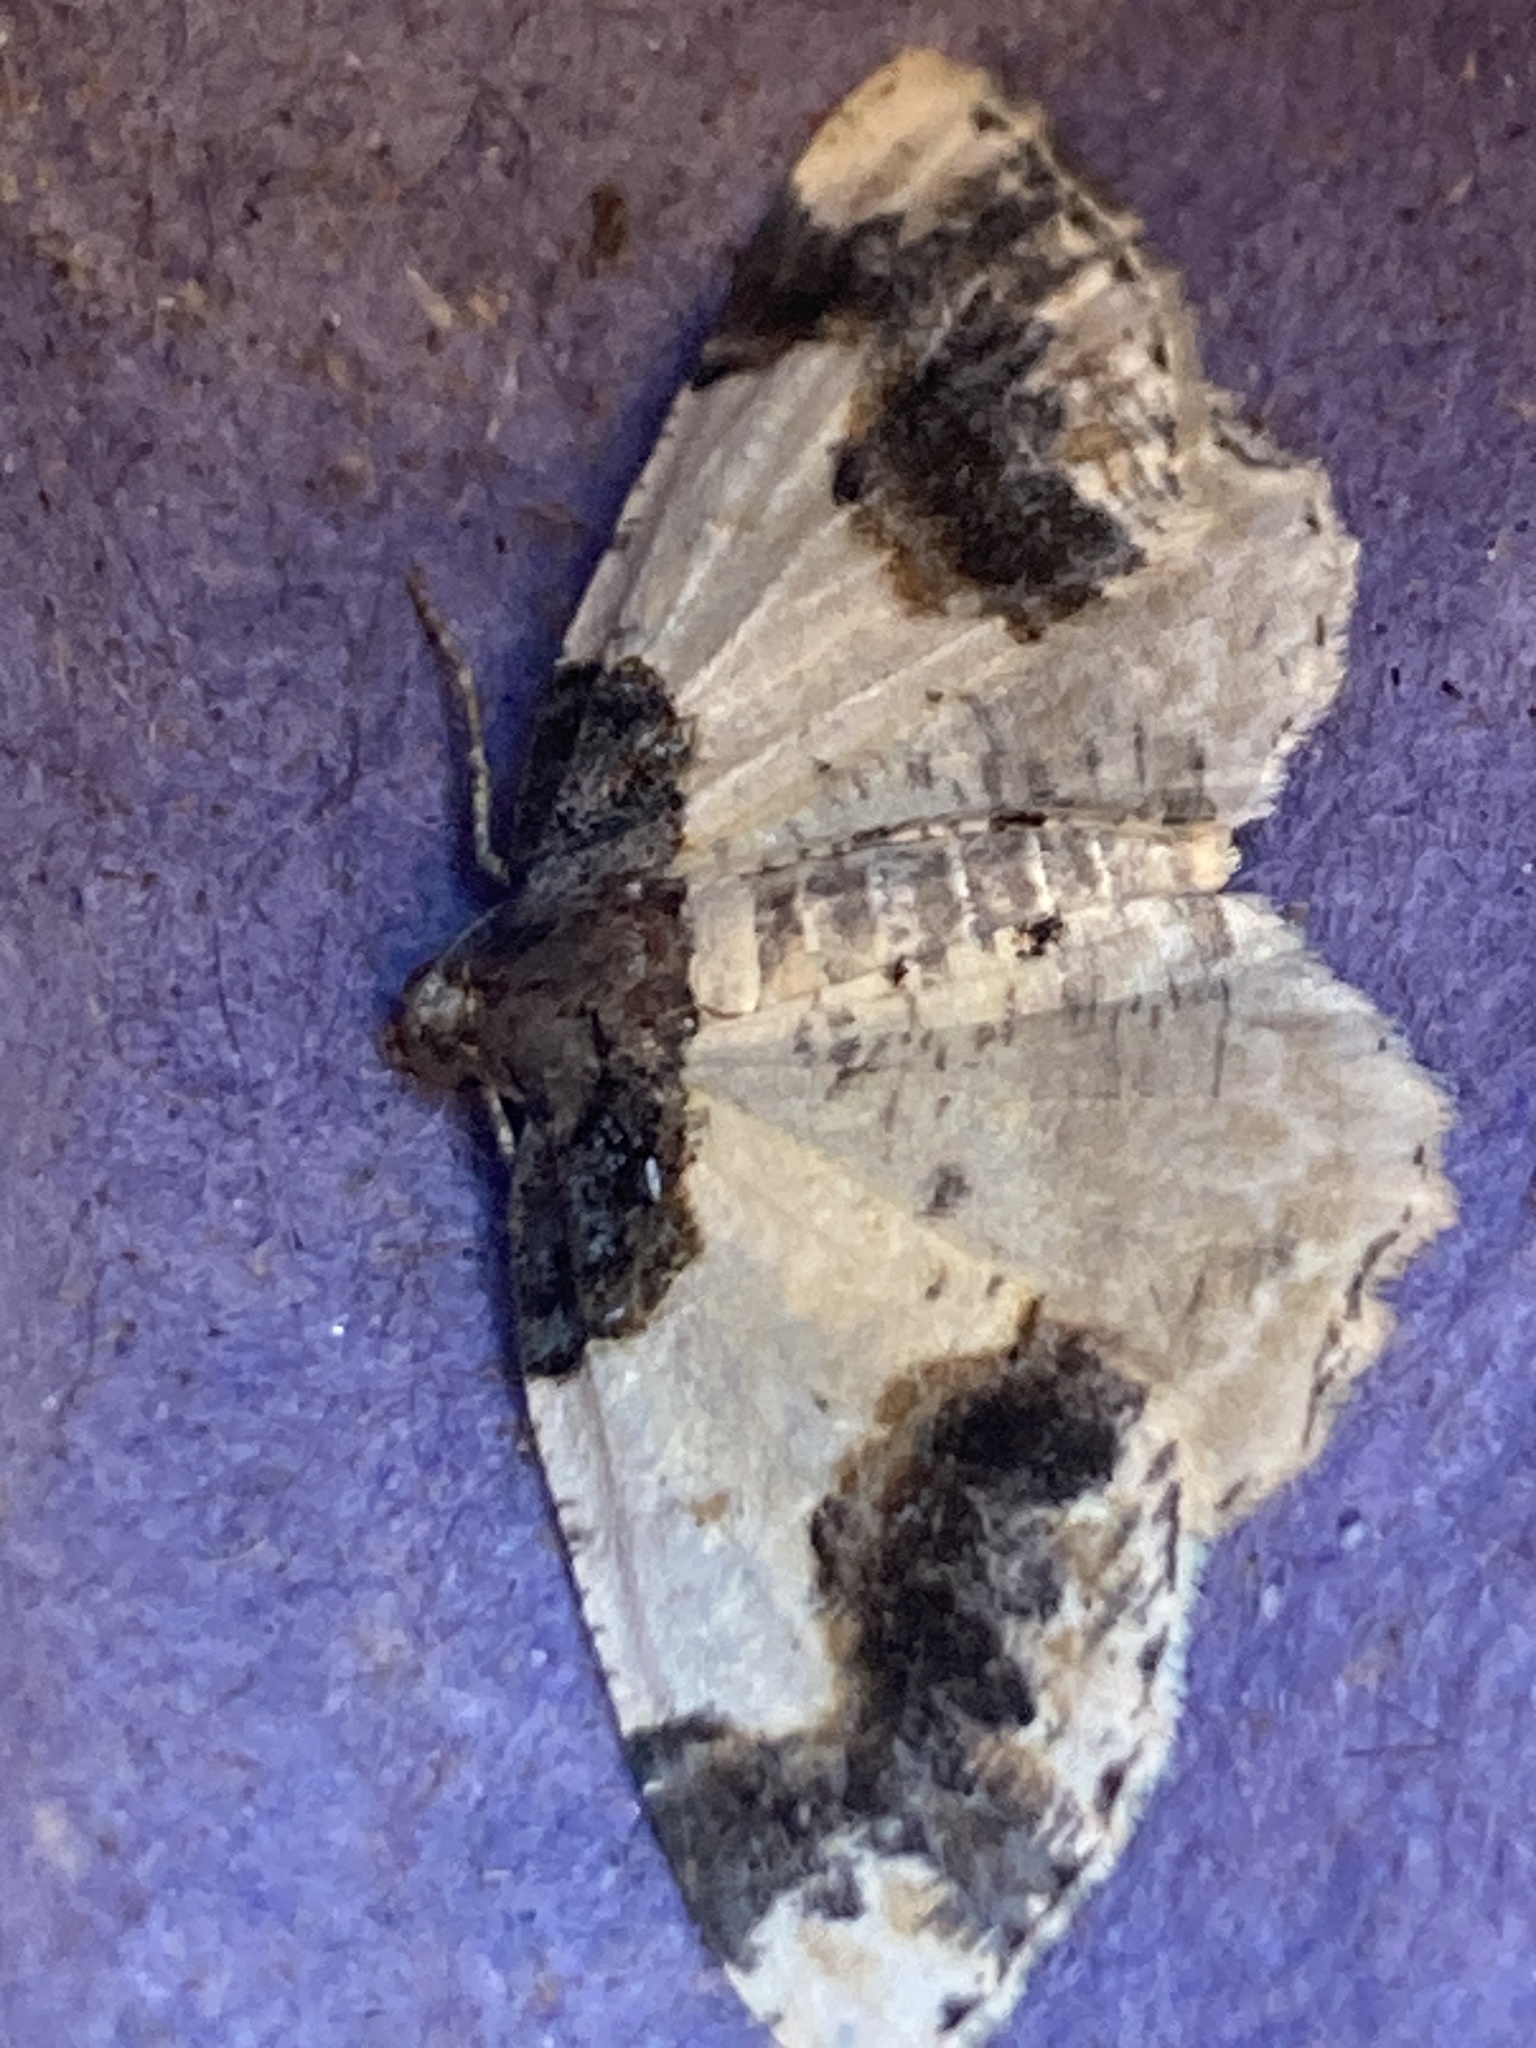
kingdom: Animalia
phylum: Arthropoda
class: Insecta
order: Lepidoptera
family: Geometridae
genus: Ligdia
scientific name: Ligdia adustata
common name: Scorched carpet
